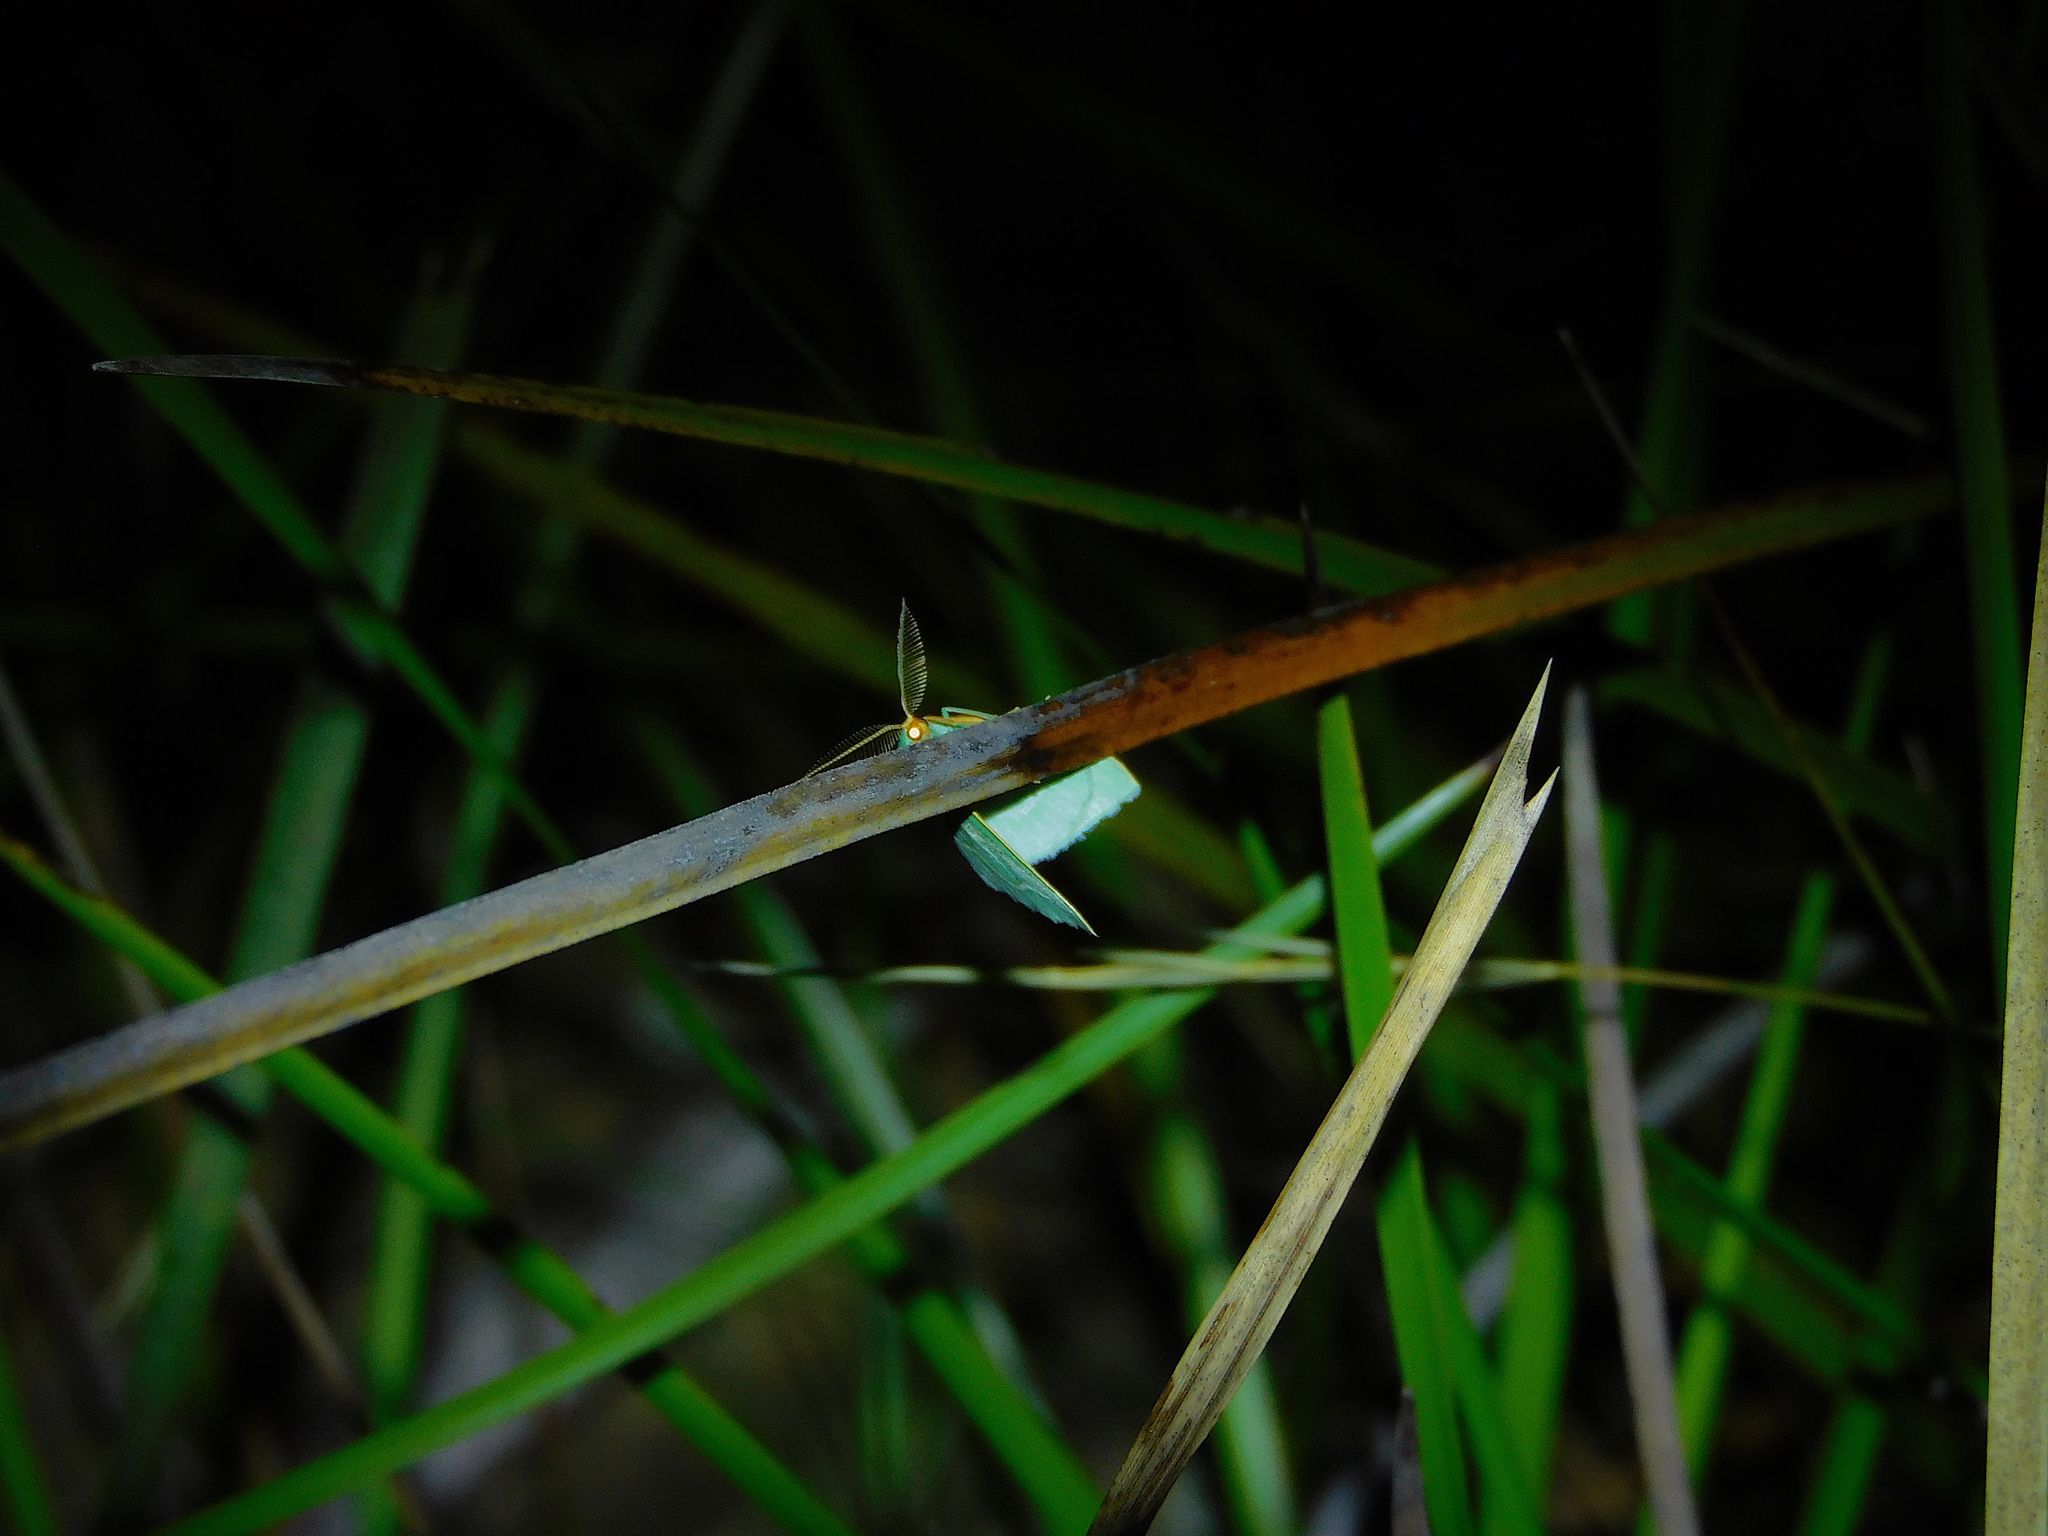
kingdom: Animalia
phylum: Arthropoda
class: Insecta
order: Lepidoptera
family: Geometridae
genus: Euloxia
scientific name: Euloxia meandraria
